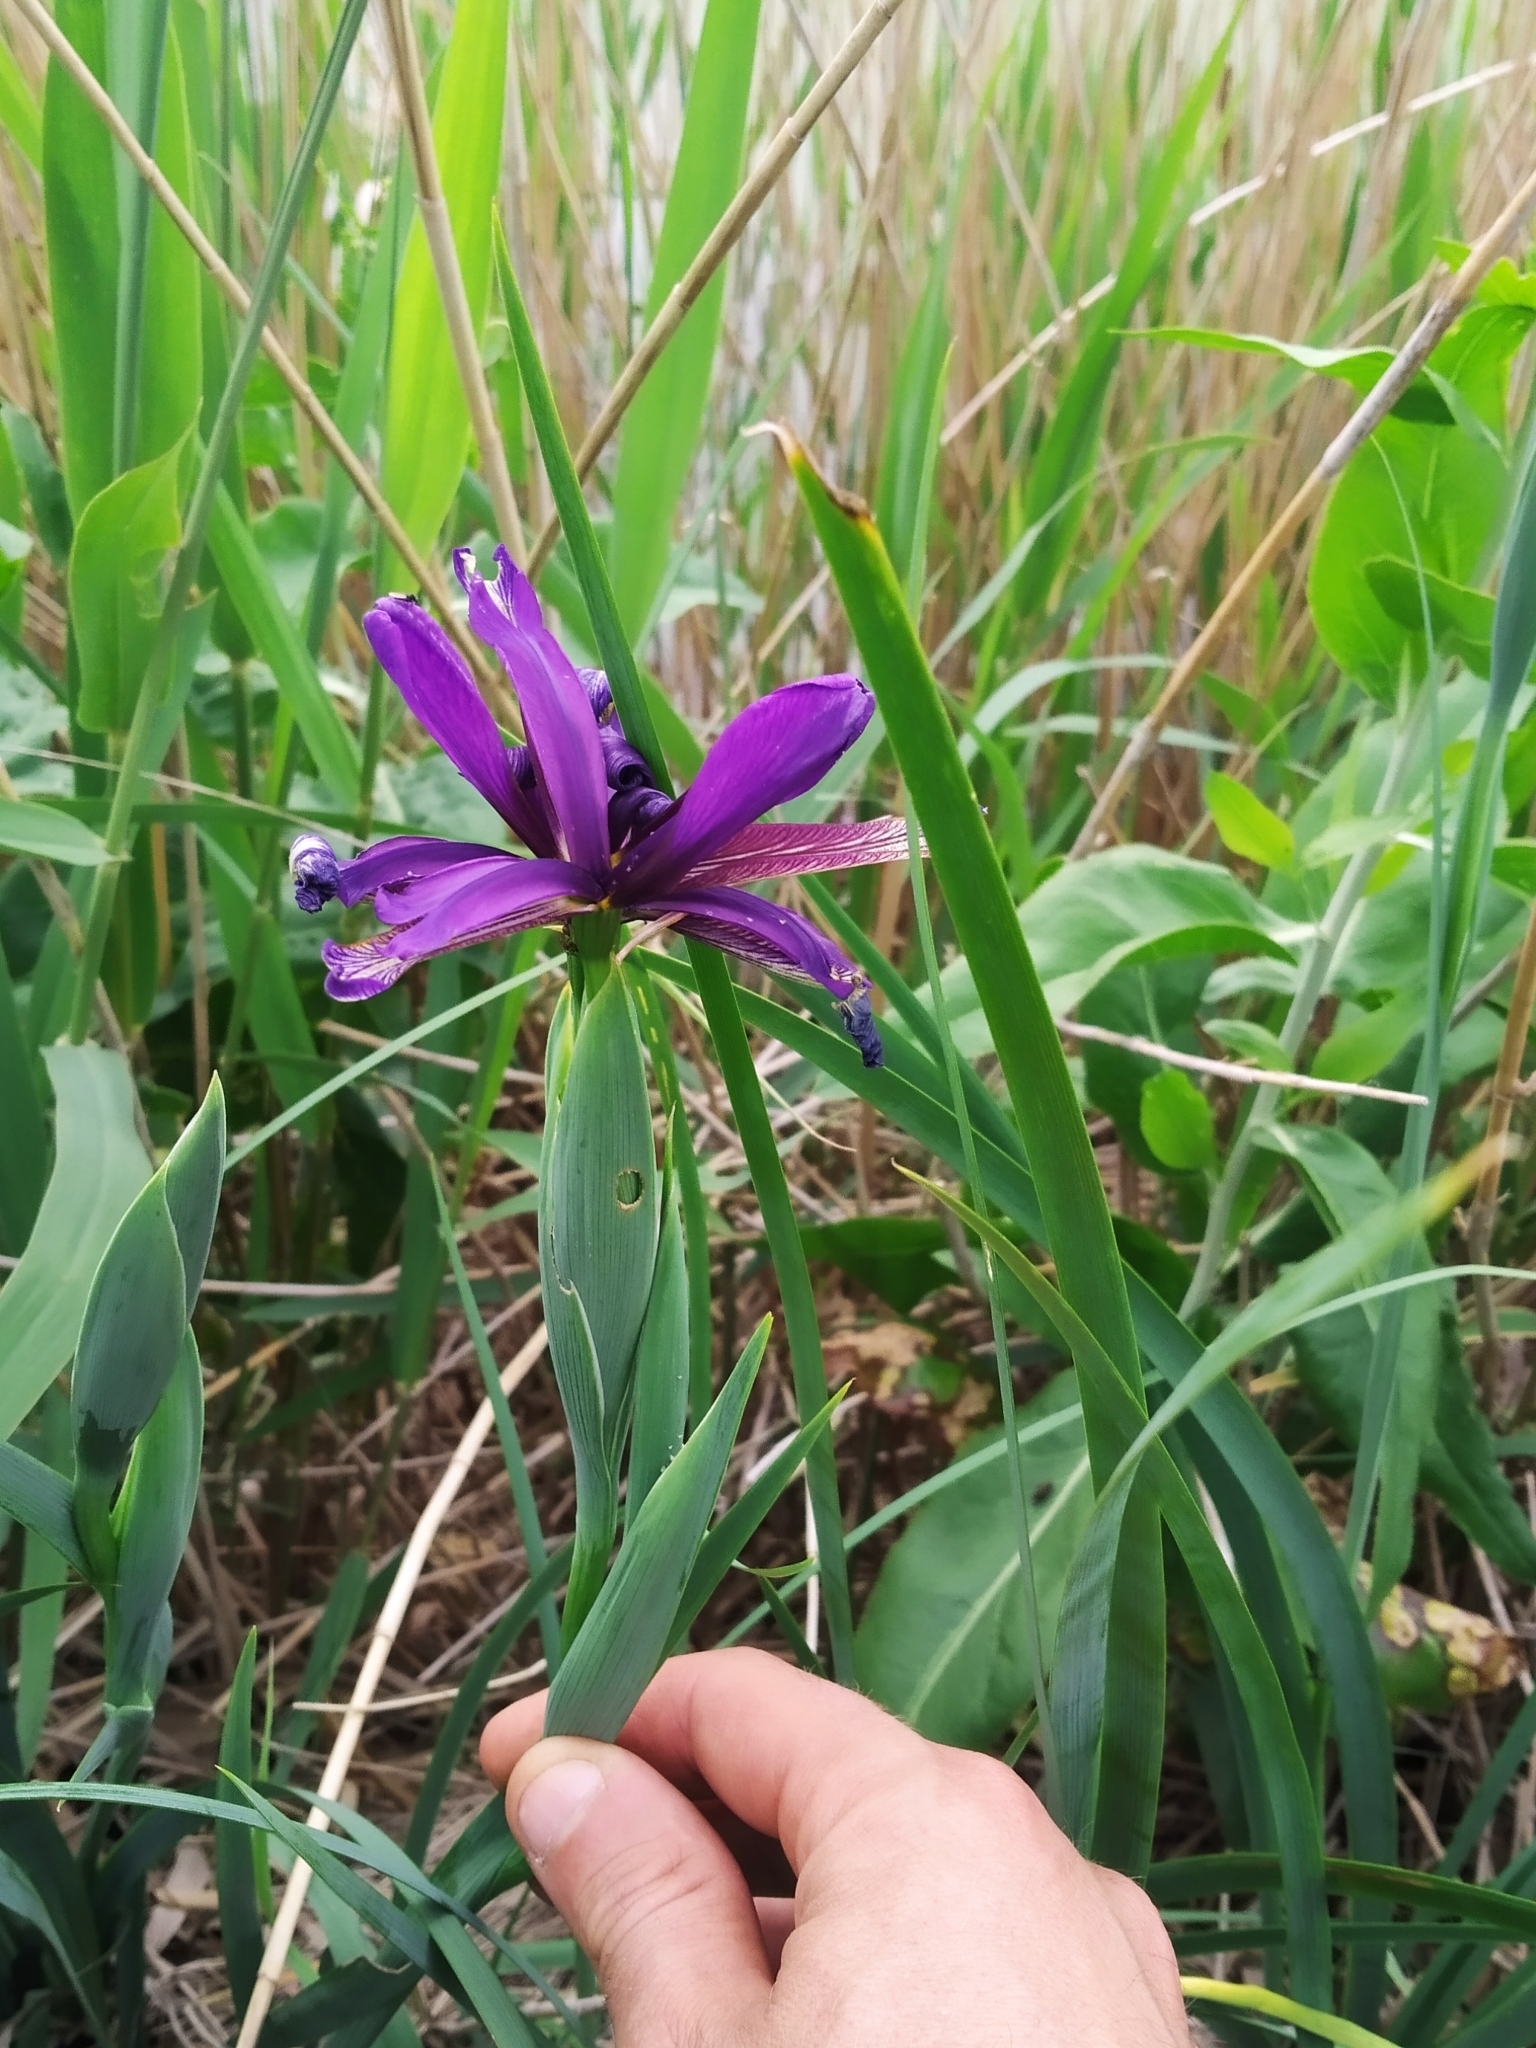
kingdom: Plantae
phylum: Tracheophyta
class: Liliopsida
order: Asparagales
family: Iridaceae
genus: Iris
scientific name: Iris reichenbachiana
